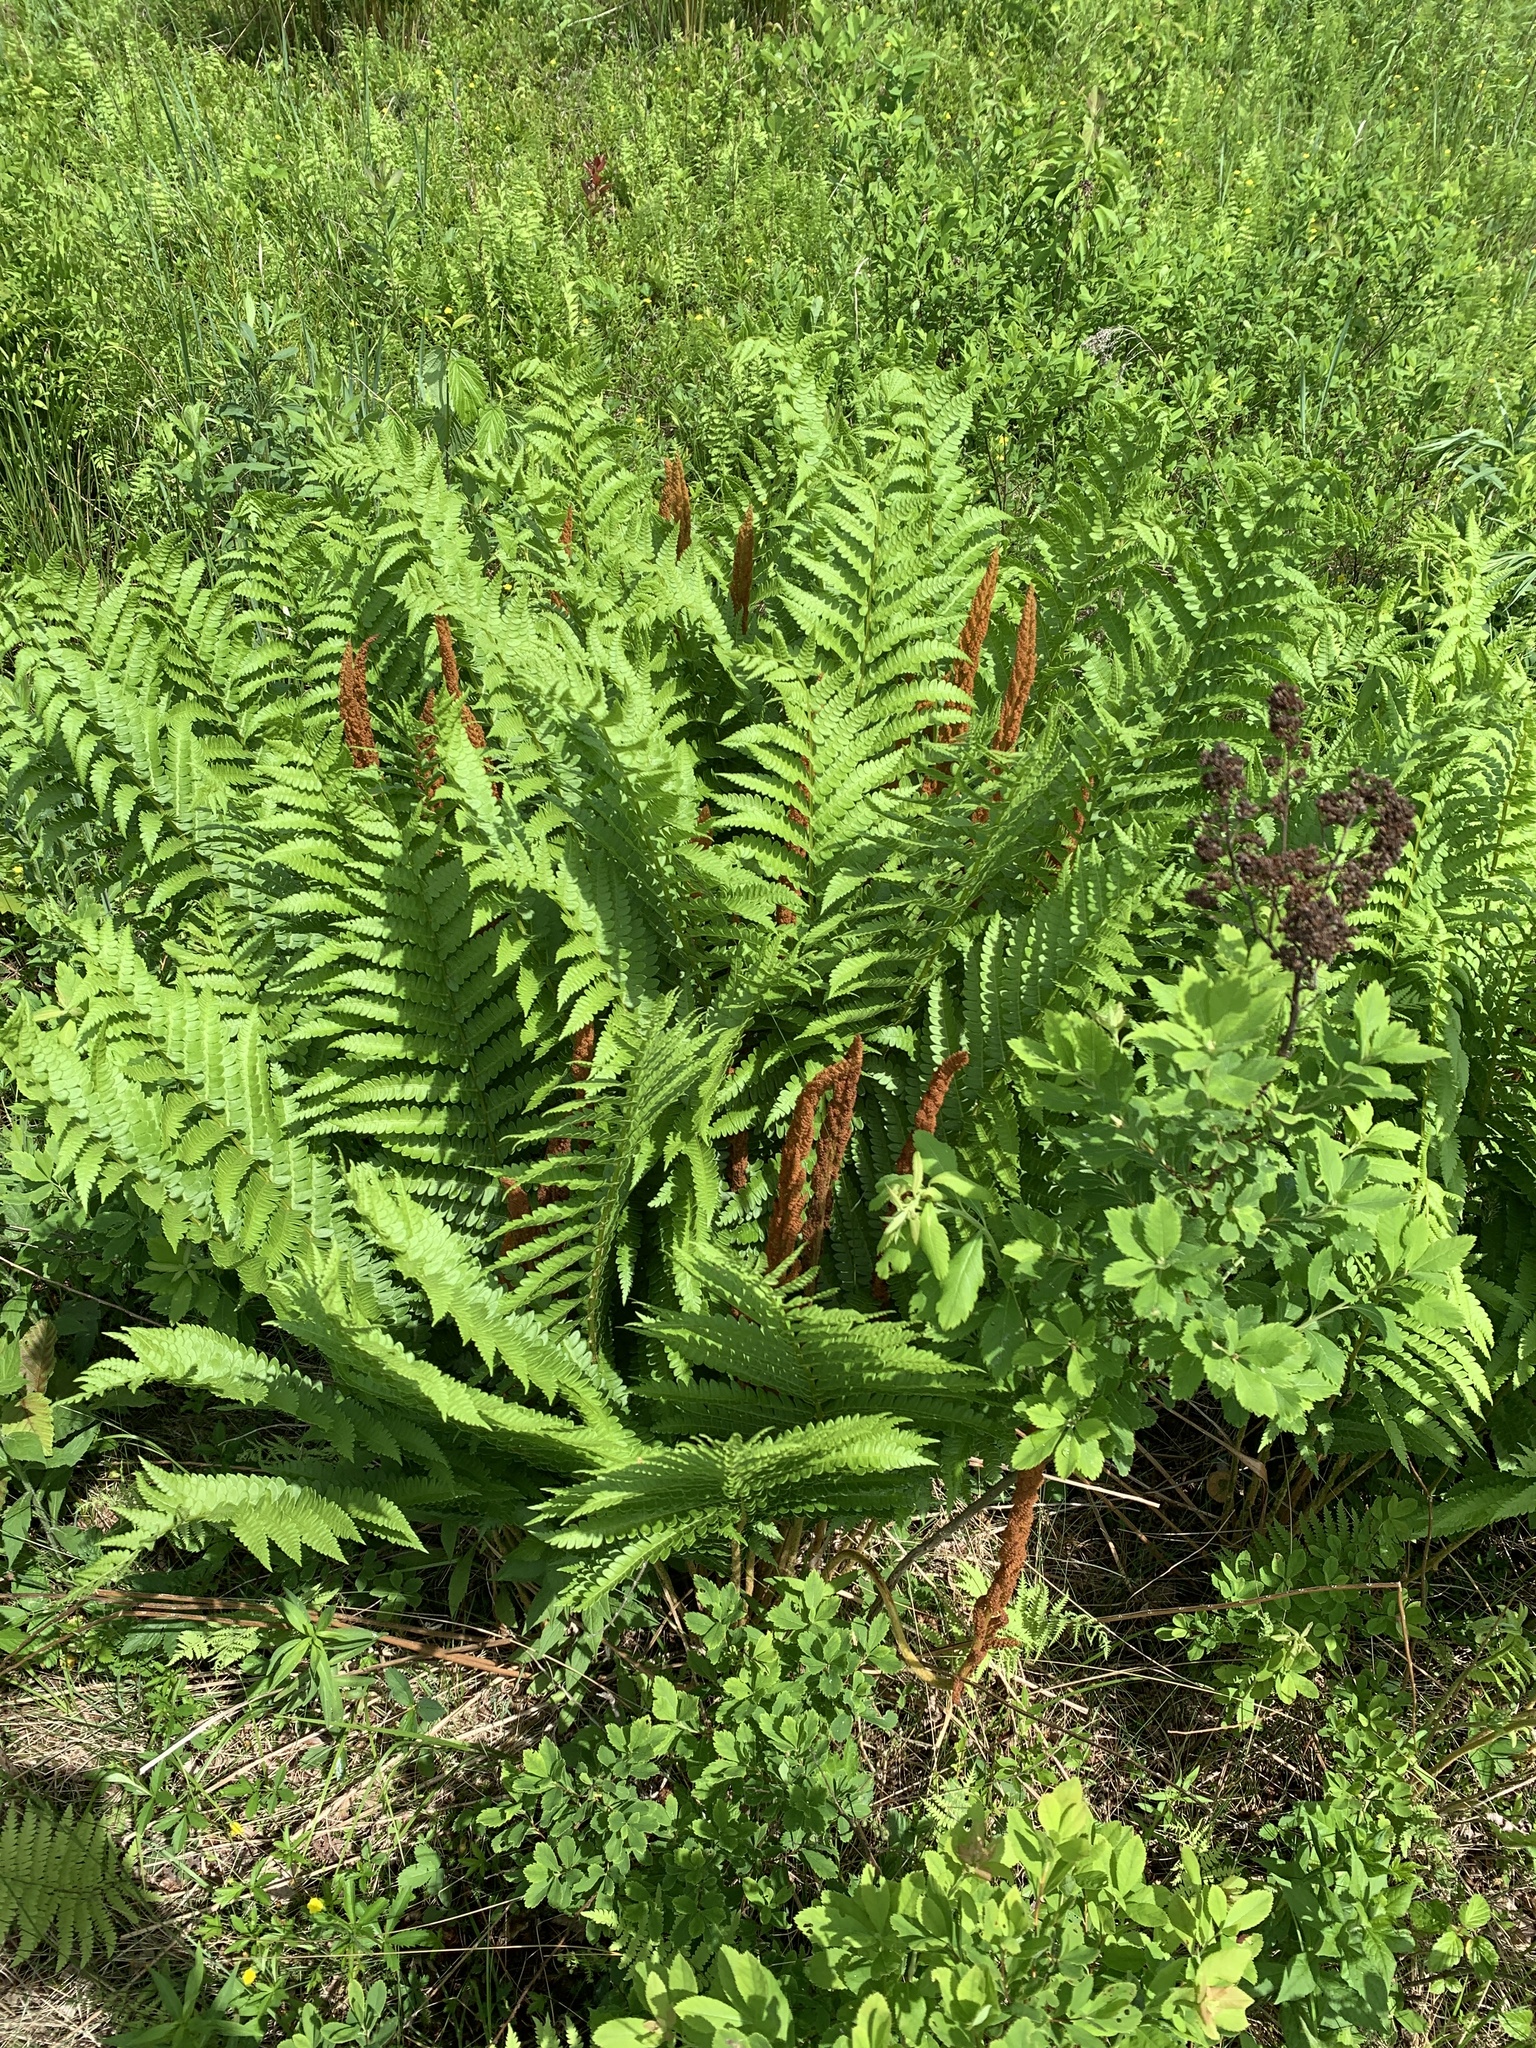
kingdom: Plantae
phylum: Tracheophyta
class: Polypodiopsida
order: Osmundales
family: Osmundaceae
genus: Osmundastrum
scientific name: Osmundastrum cinnamomeum
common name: Cinnamon fern
